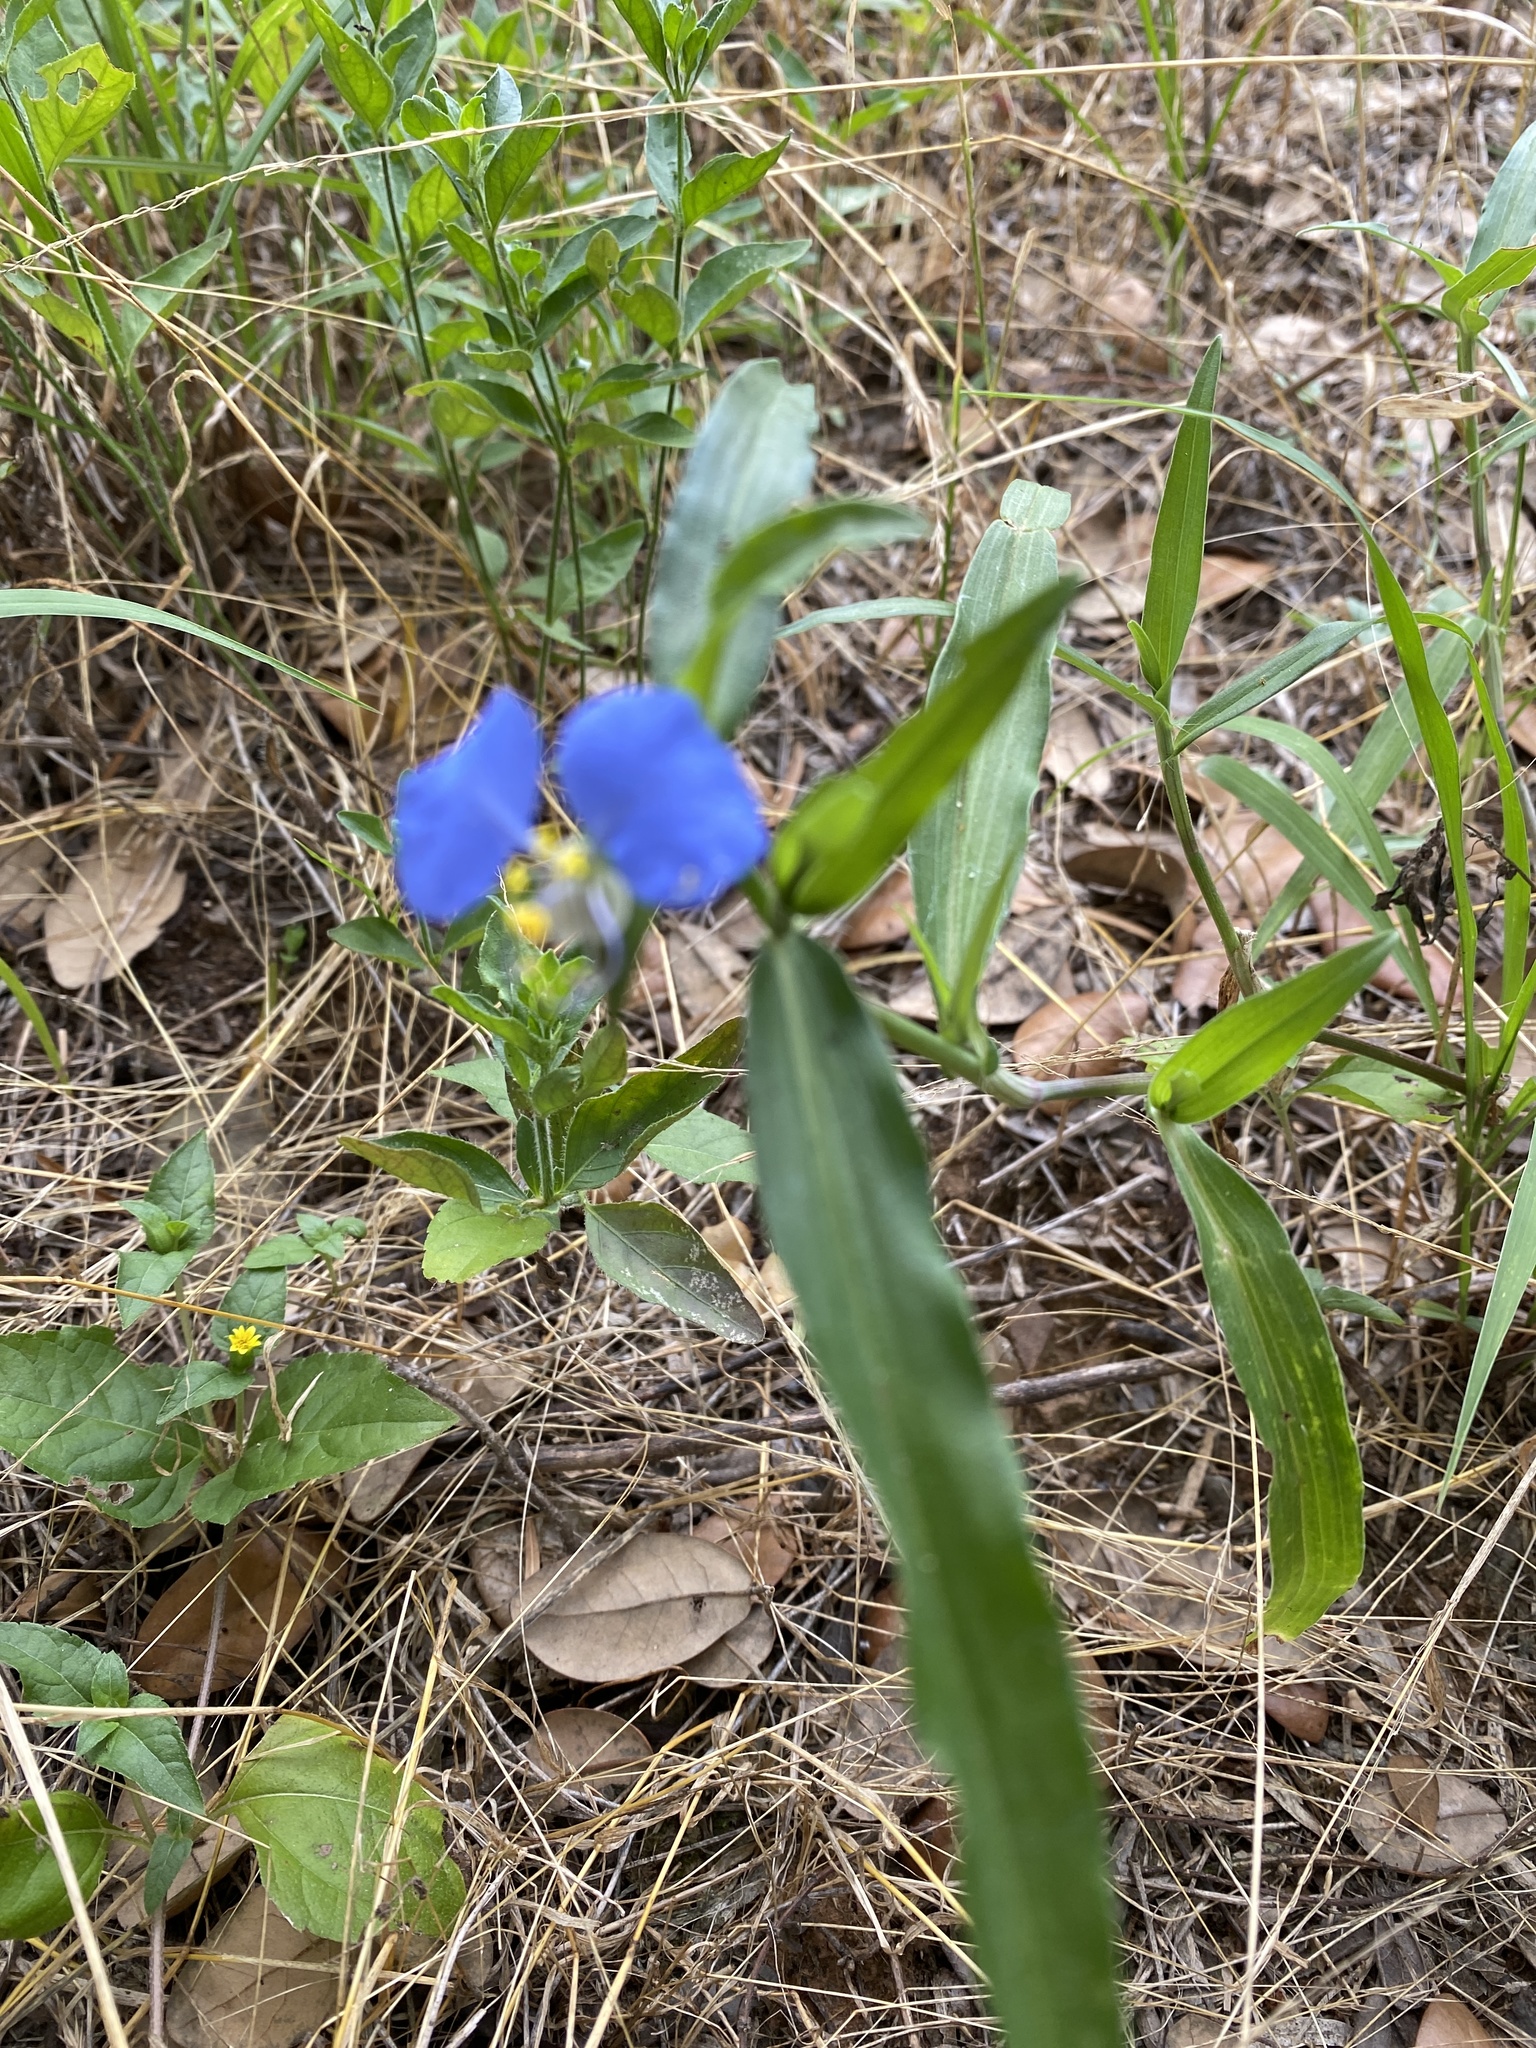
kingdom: Plantae
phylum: Tracheophyta
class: Liliopsida
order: Commelinales
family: Commelinaceae
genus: Commelina
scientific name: Commelina erecta
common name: Blousel blommetjie
